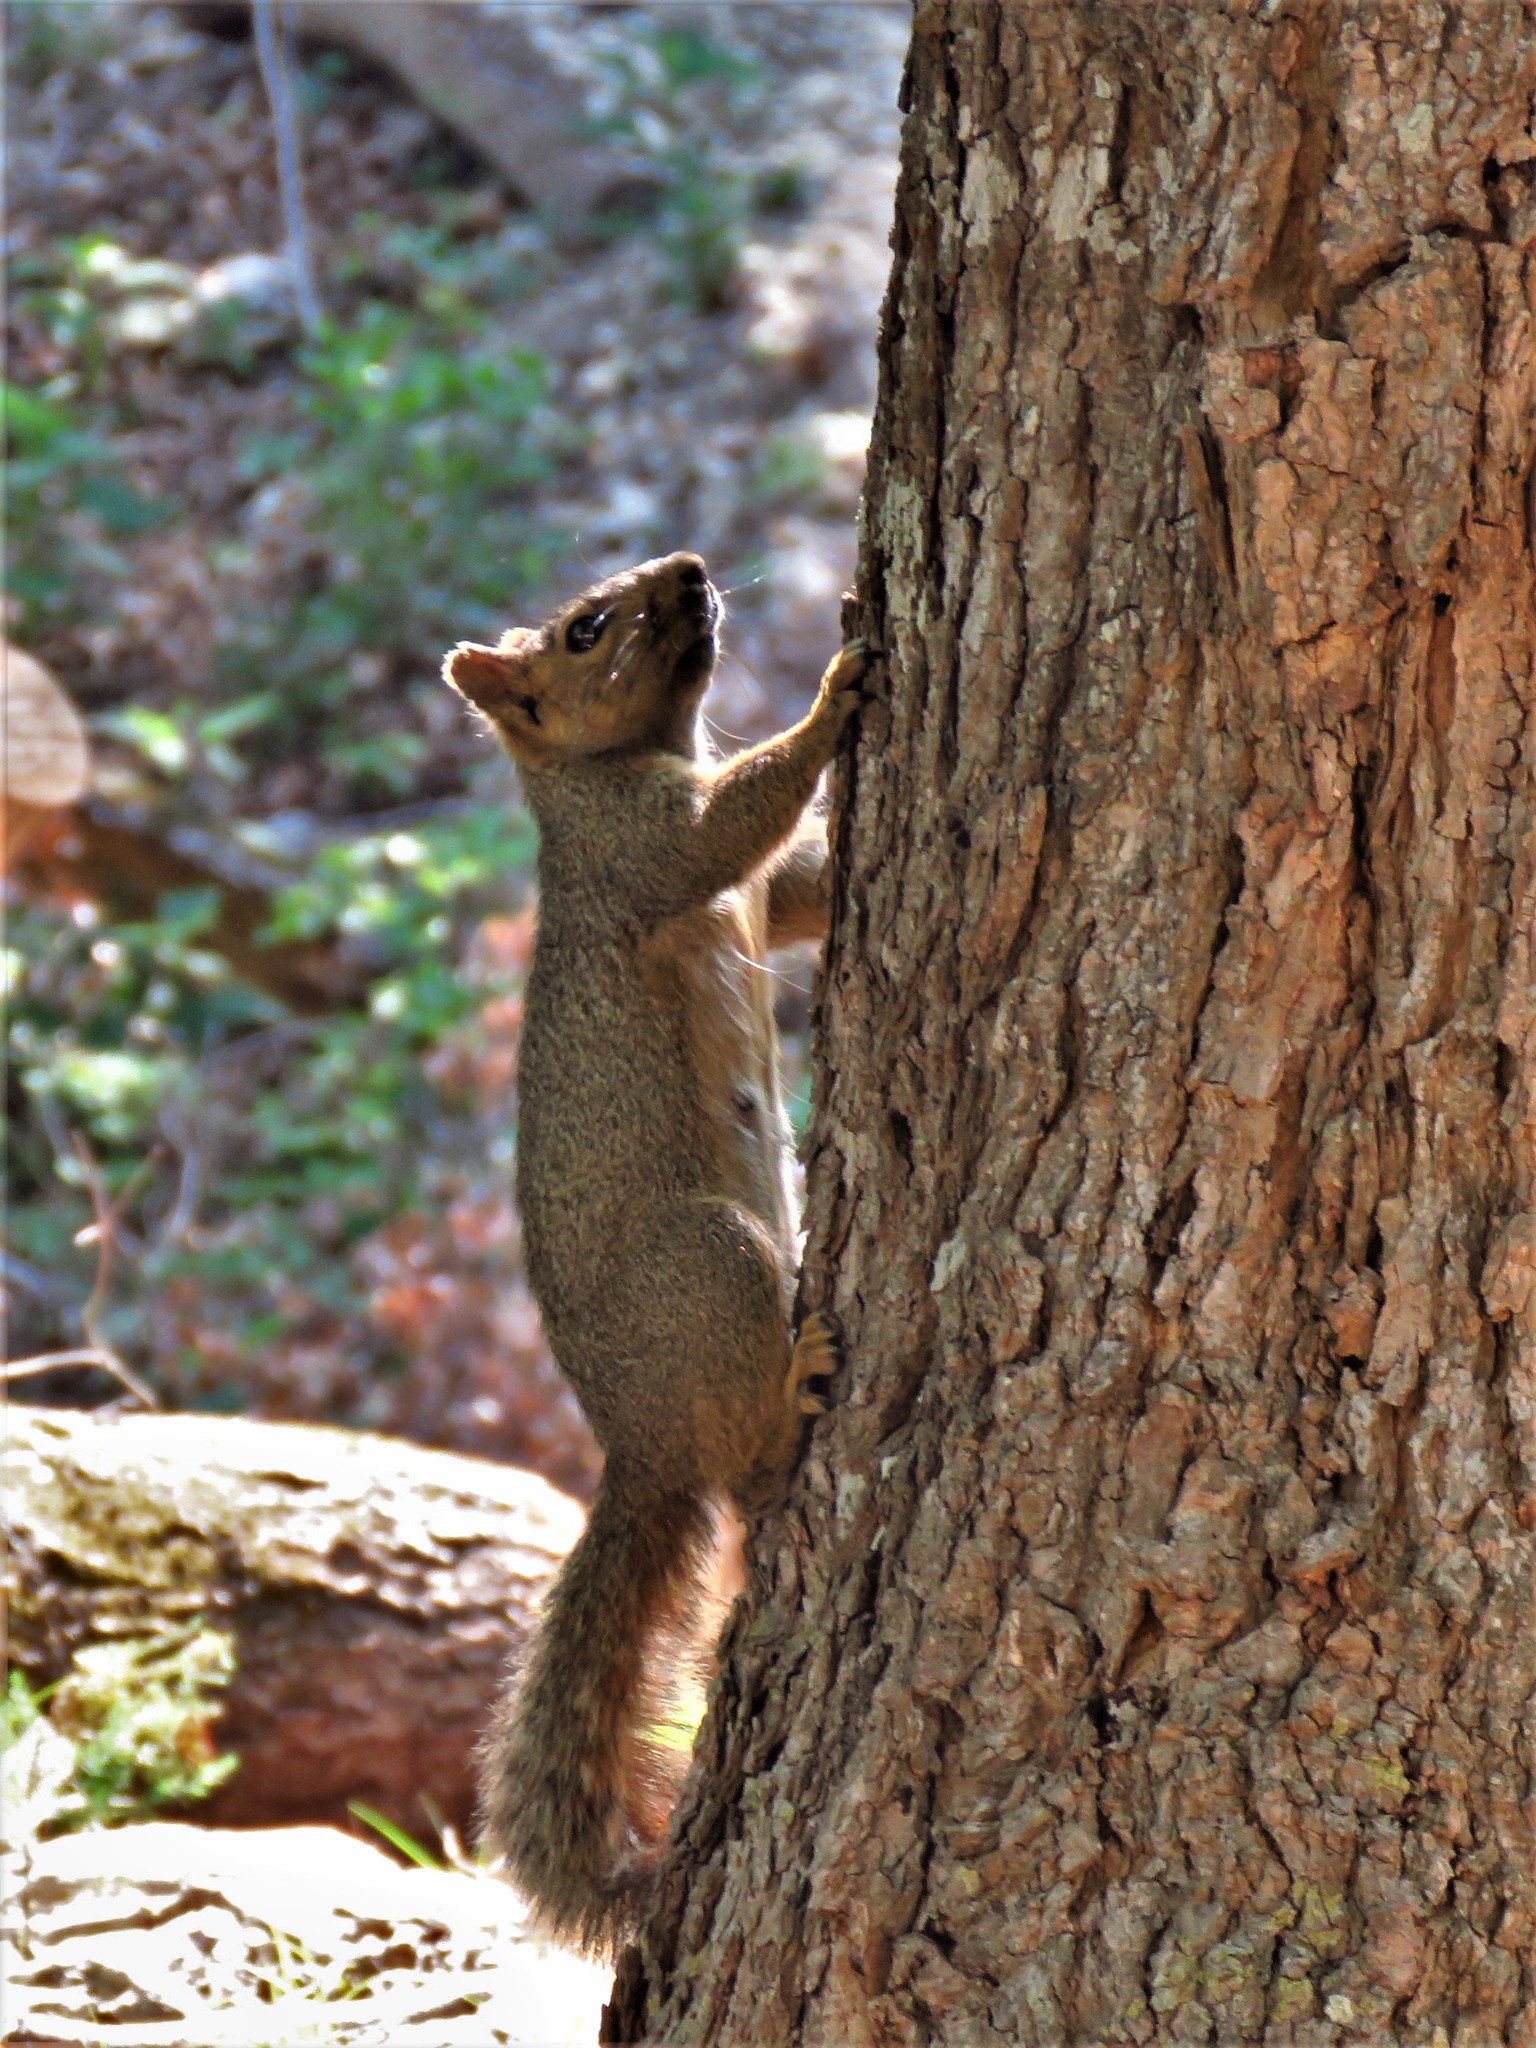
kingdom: Animalia
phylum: Chordata
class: Mammalia
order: Rodentia
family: Sciuridae
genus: Sciurus
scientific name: Sciurus niger
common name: Fox squirrel
